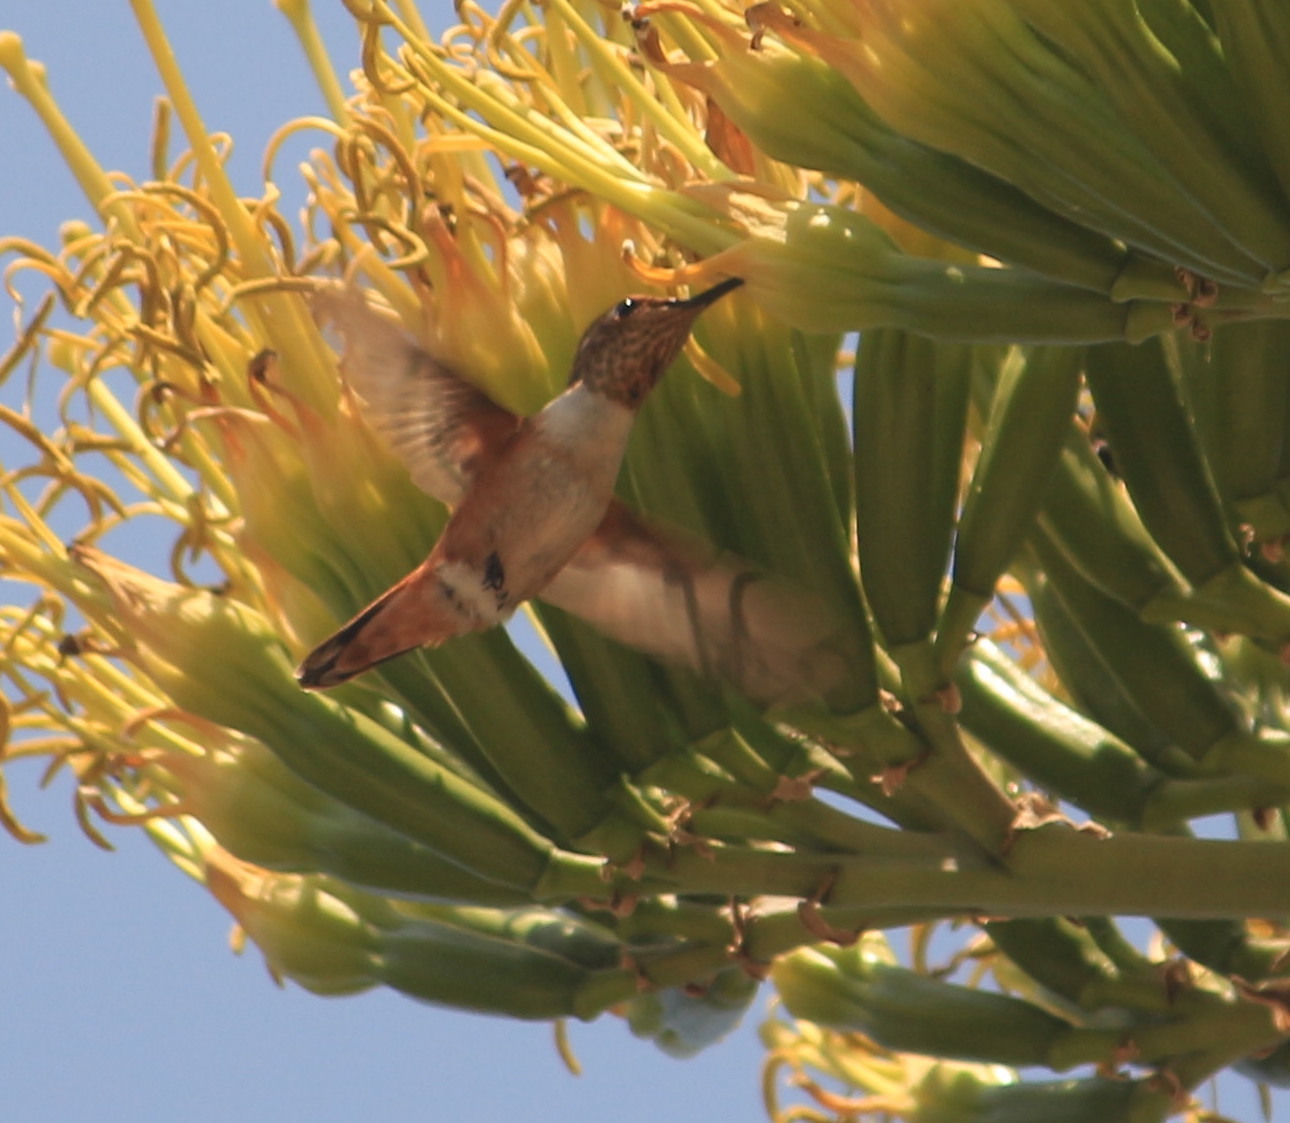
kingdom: Animalia
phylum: Chordata
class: Aves
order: Apodiformes
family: Trochilidae
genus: Selasphorus
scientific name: Selasphorus
